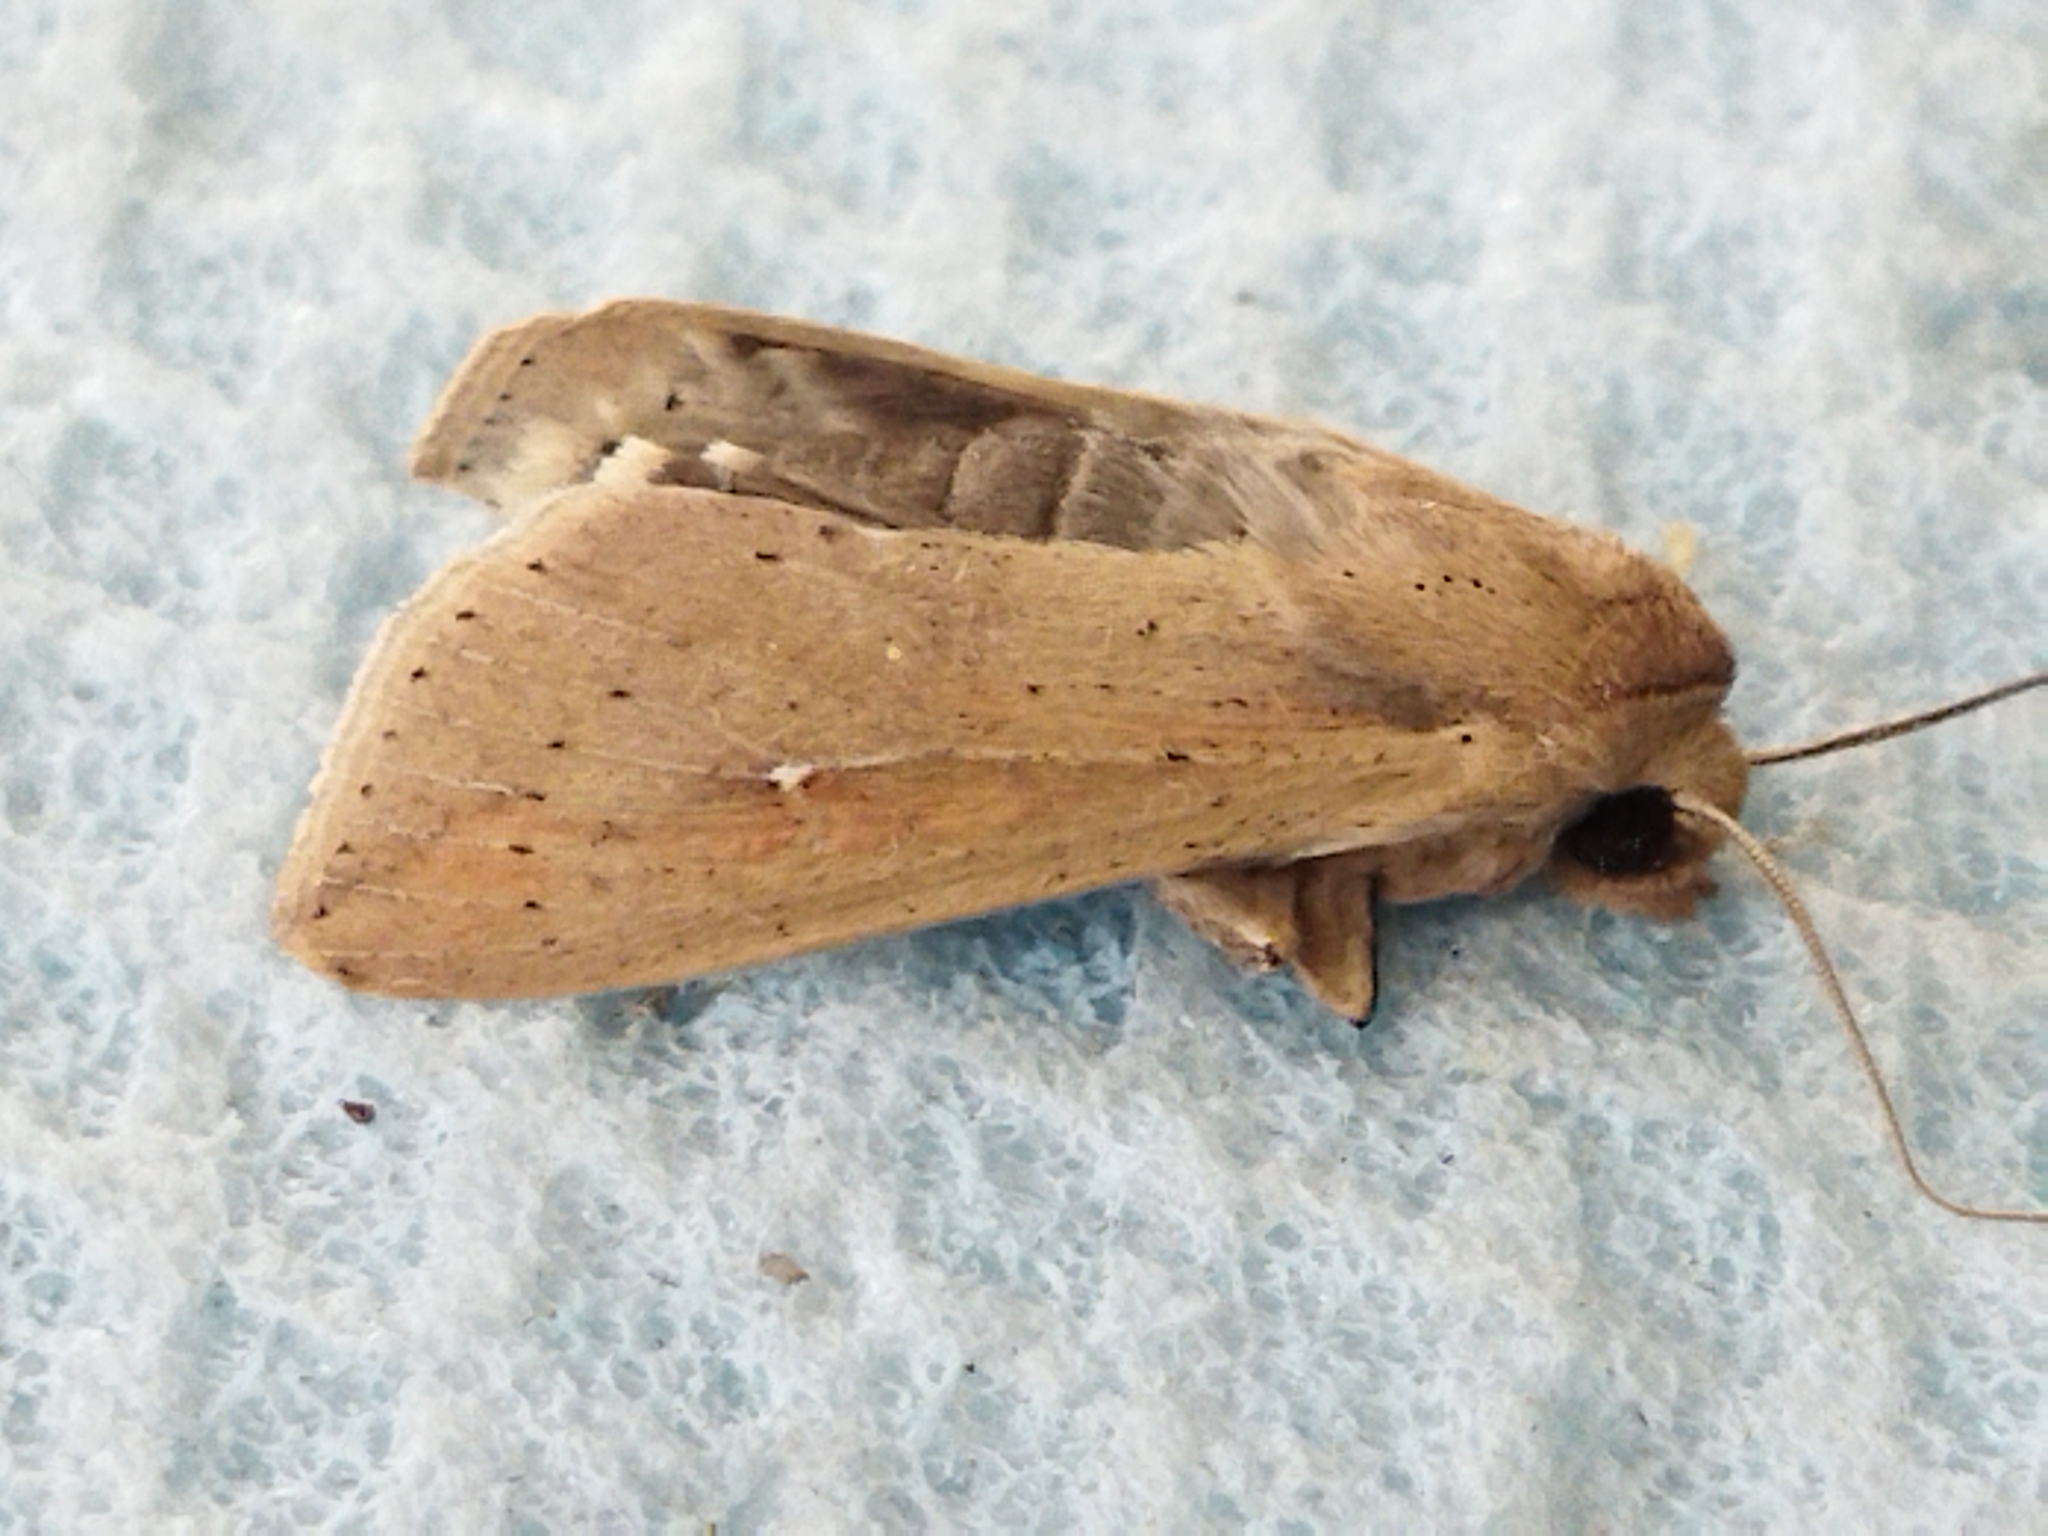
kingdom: Animalia
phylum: Arthropoda
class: Insecta
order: Lepidoptera
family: Noctuidae
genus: Mythimna
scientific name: Mythimna unipuncta
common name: White-speck
